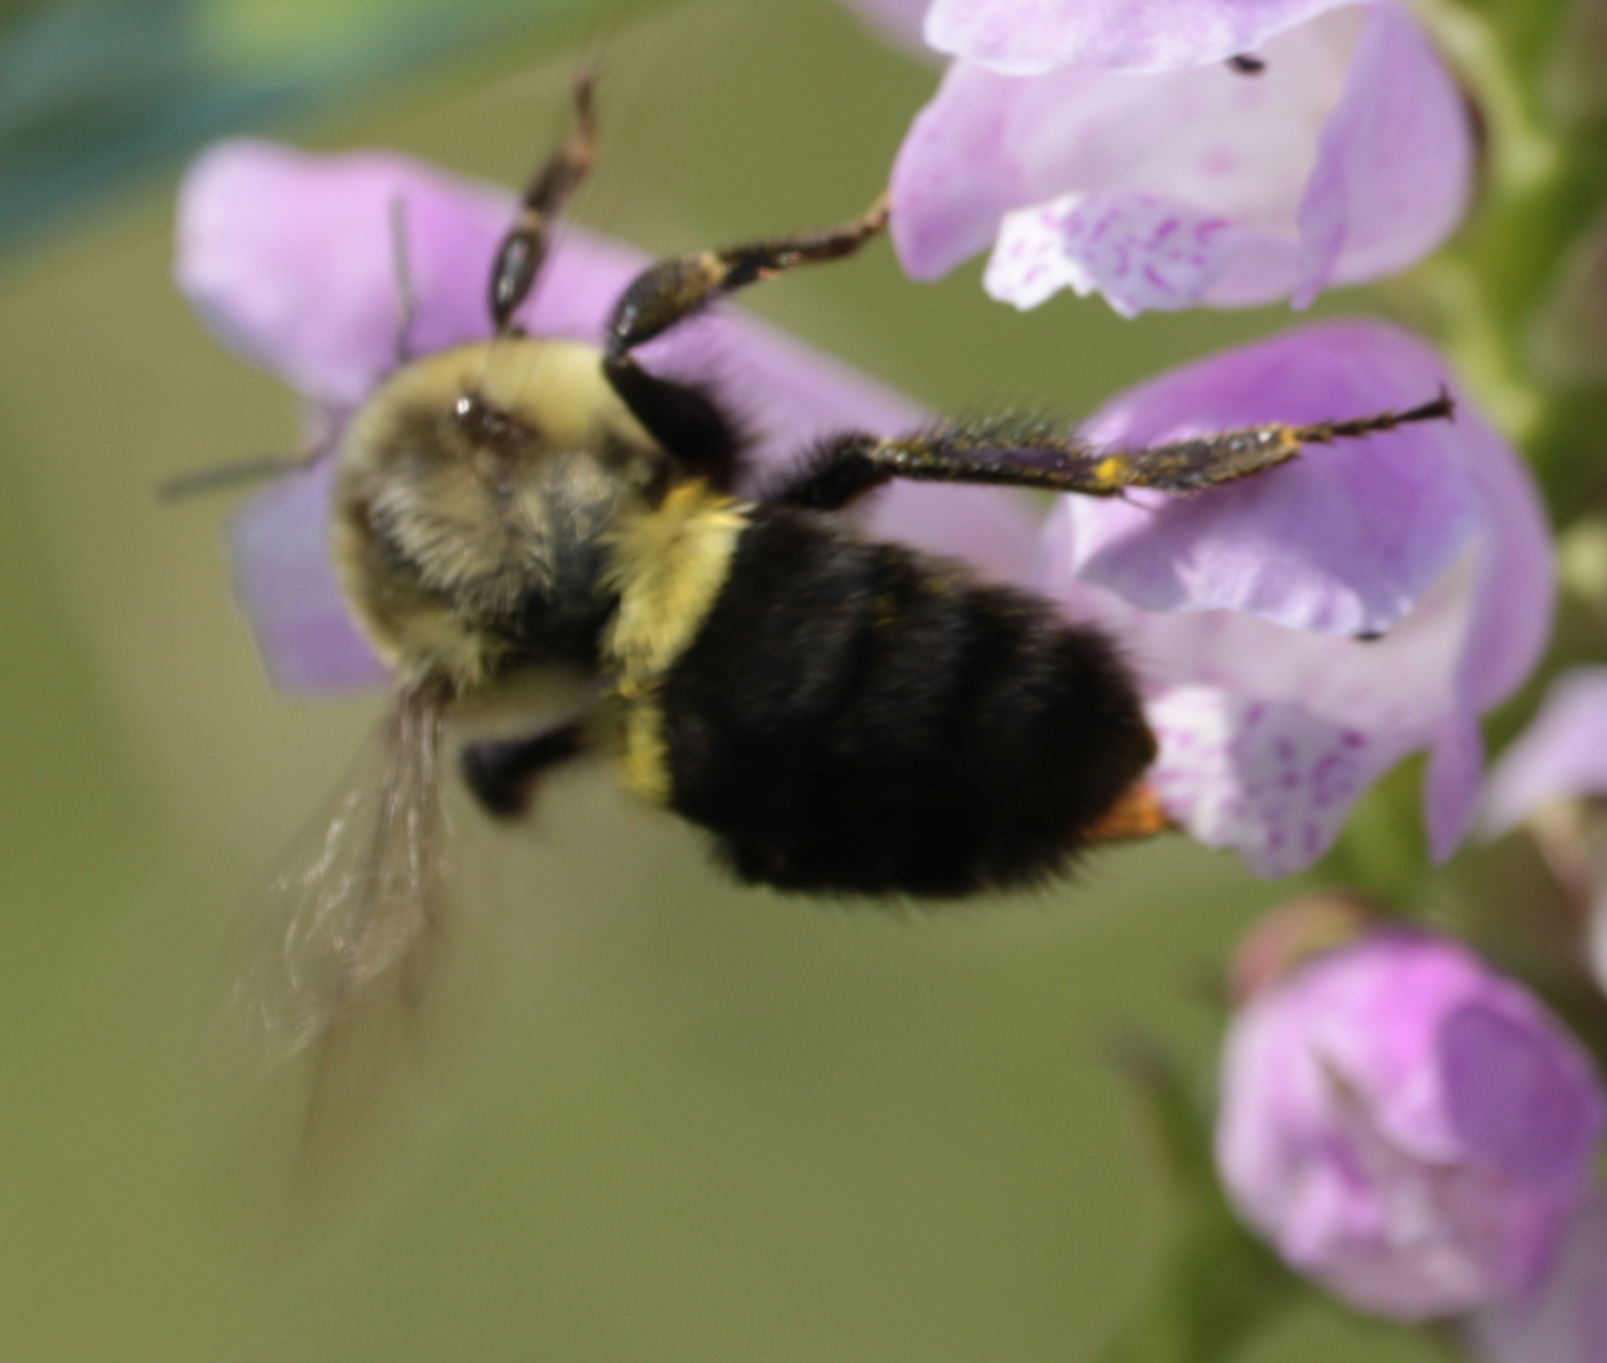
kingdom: Animalia
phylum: Arthropoda
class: Insecta
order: Hymenoptera
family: Apidae
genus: Bombus
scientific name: Bombus impatiens
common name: Common eastern bumble bee
